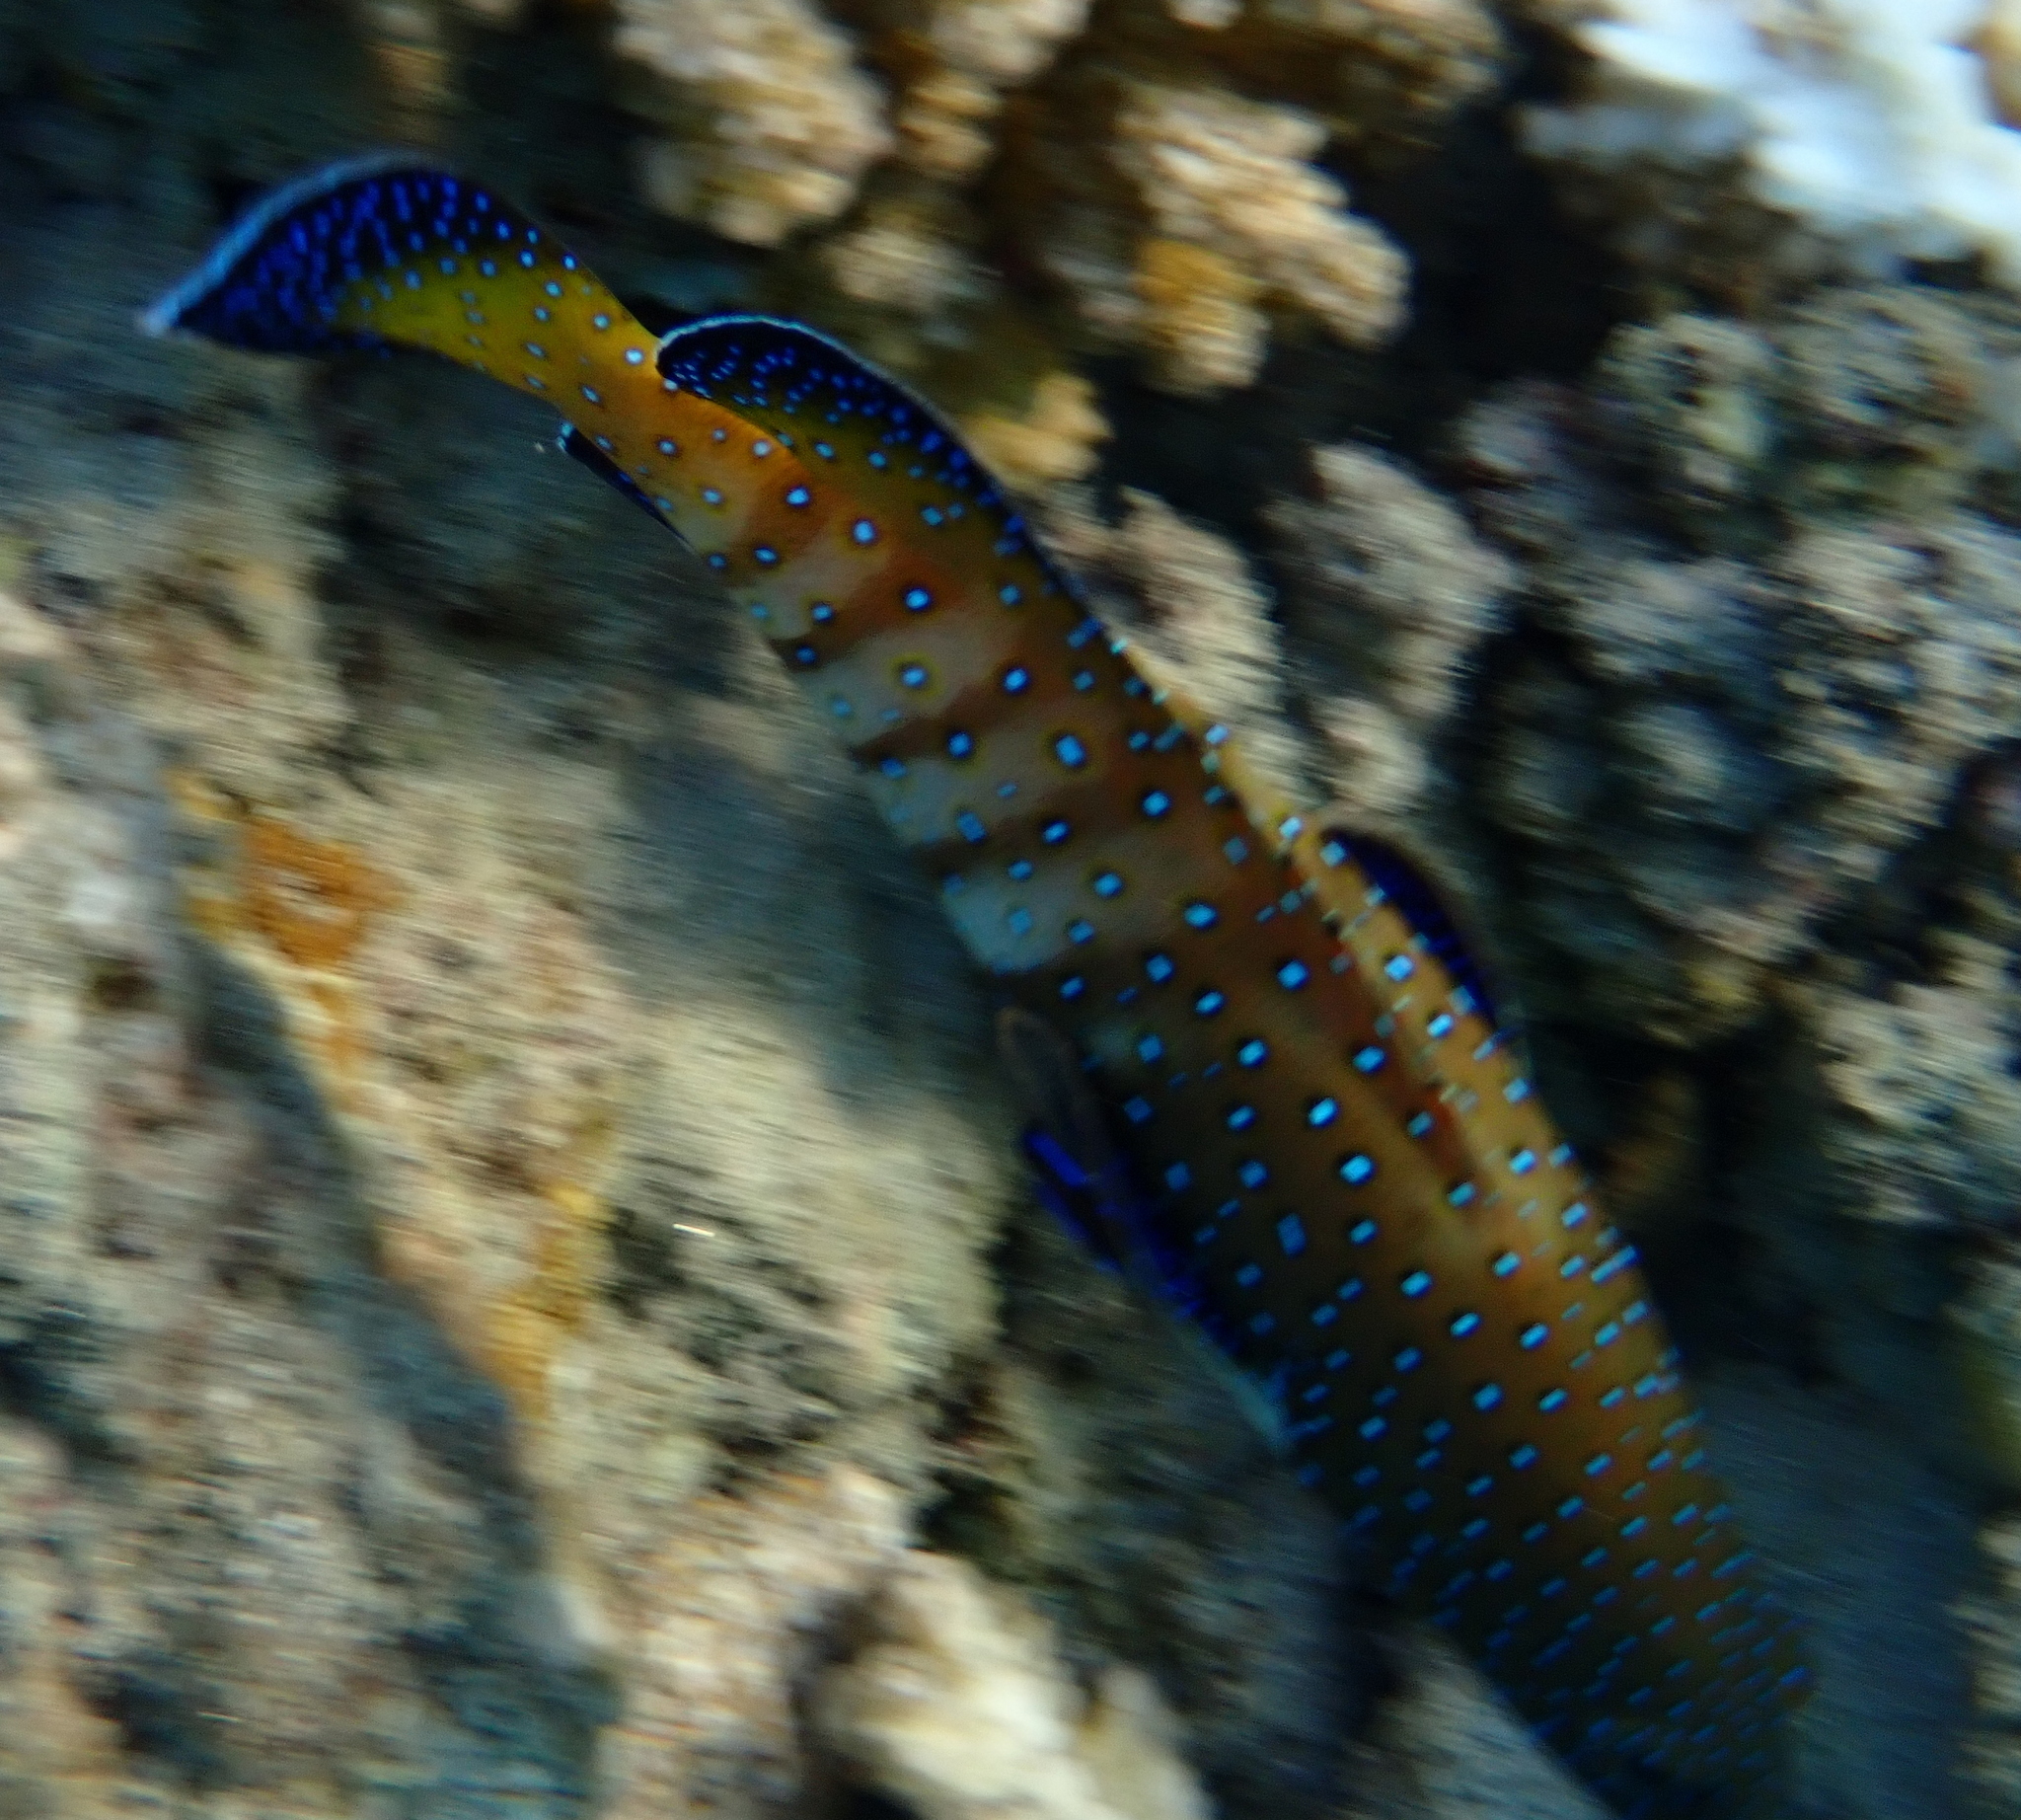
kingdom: Animalia
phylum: Chordata
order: Perciformes
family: Serranidae
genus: Cephalopholis
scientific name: Cephalopholis argus
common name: Peacock grouper
